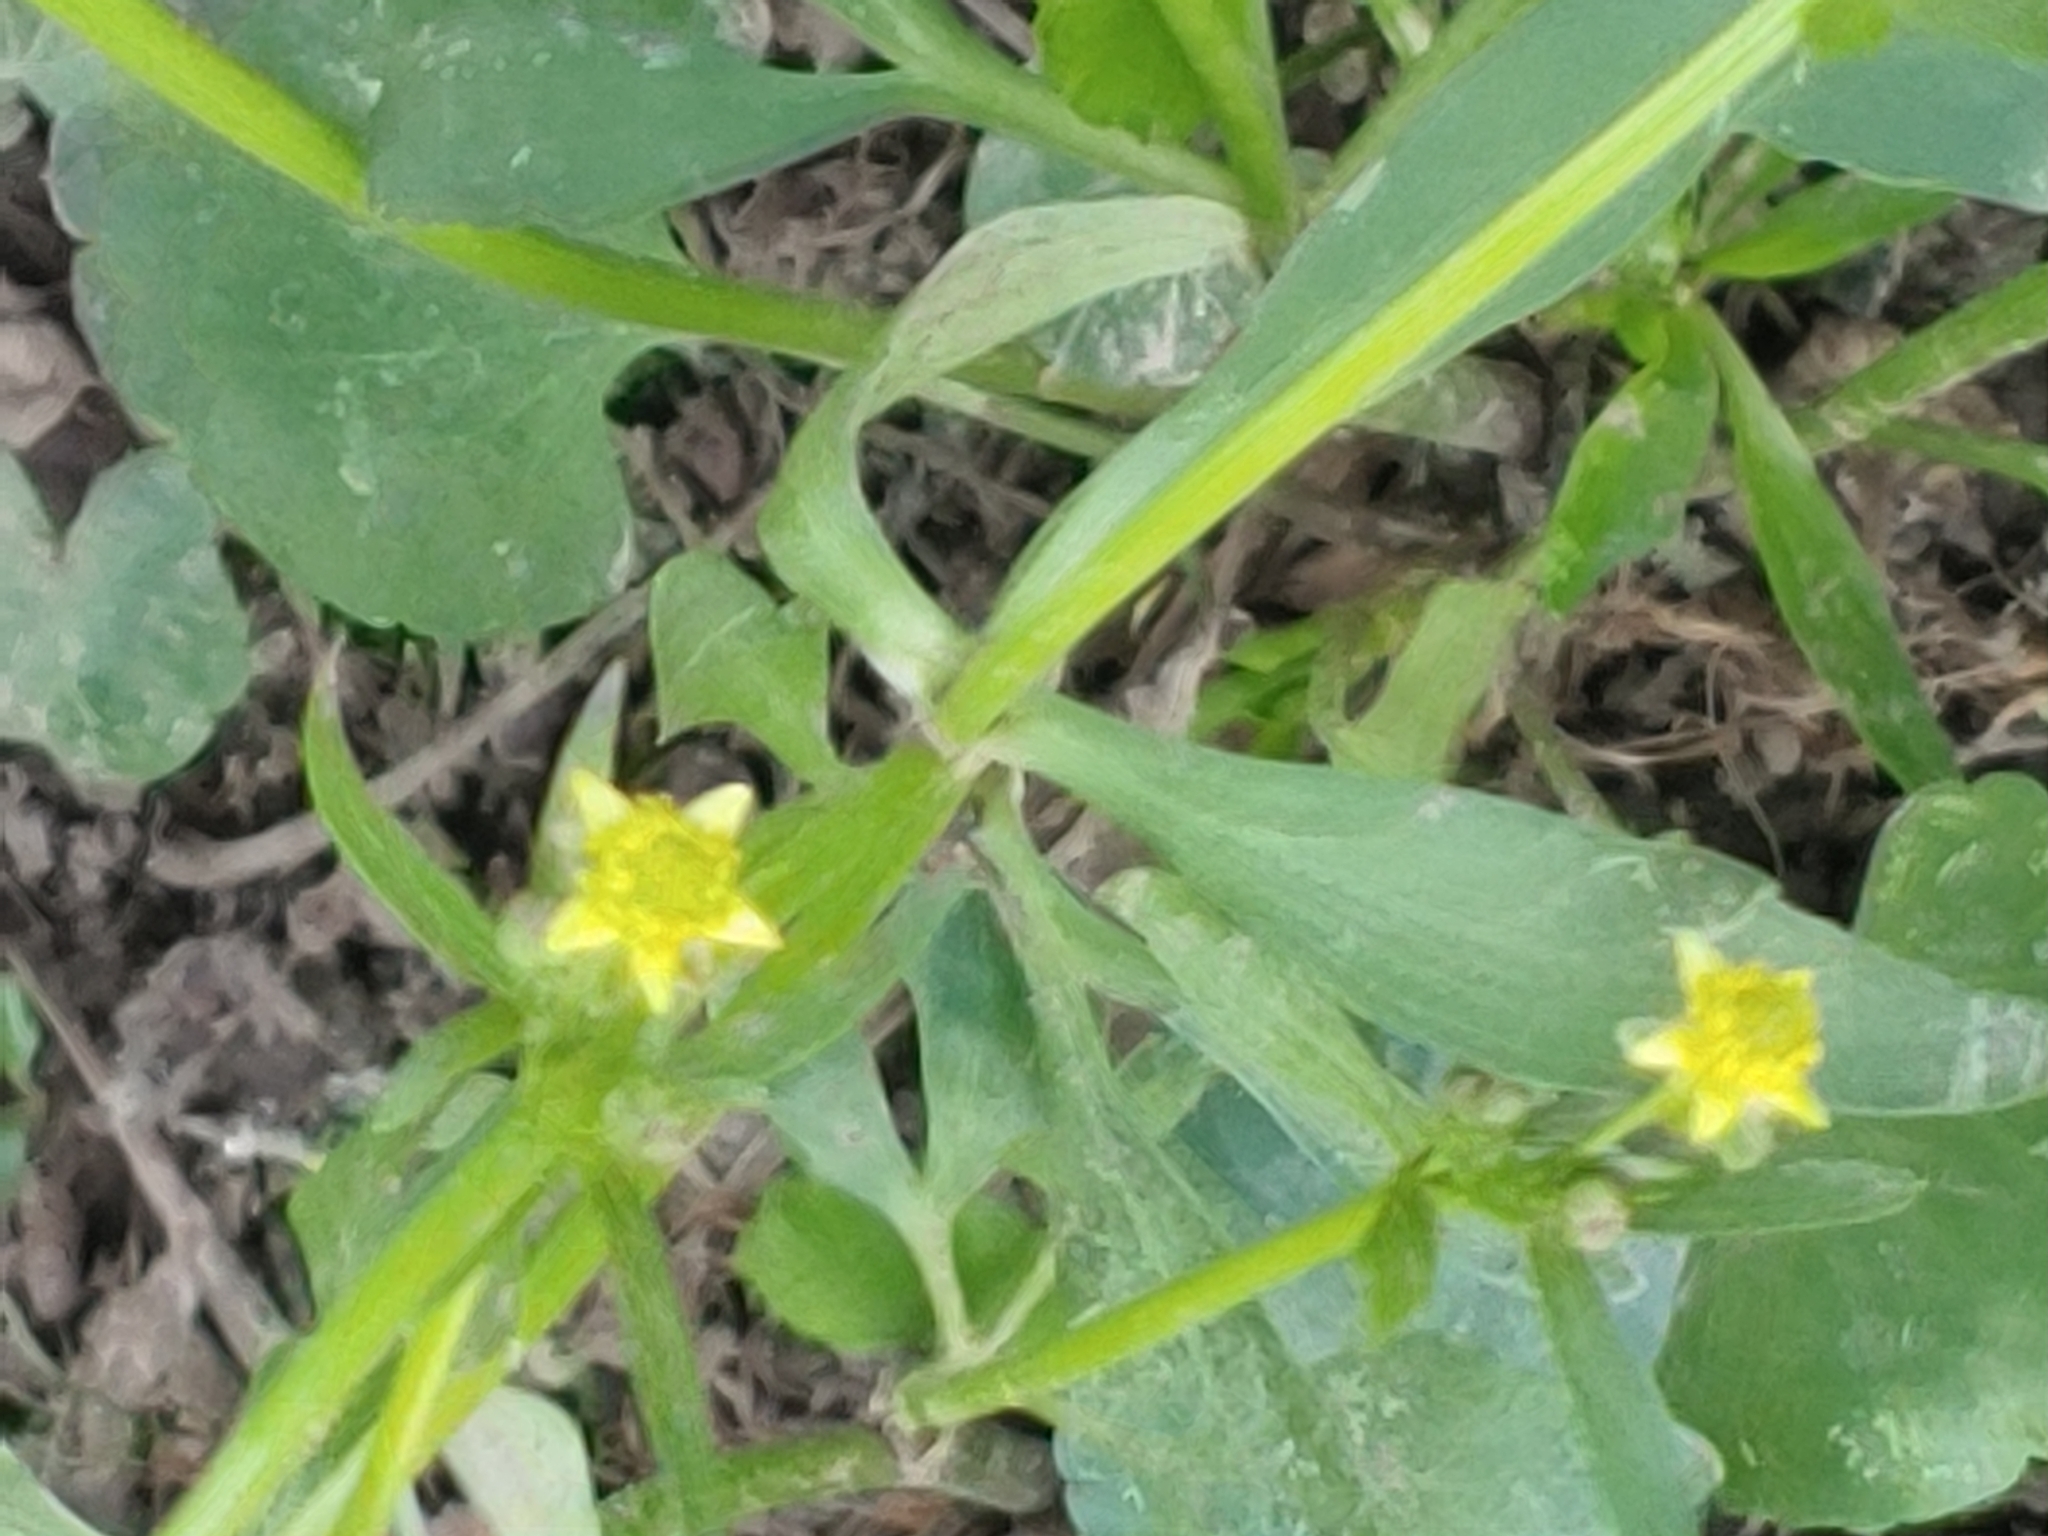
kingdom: Plantae
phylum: Tracheophyta
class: Magnoliopsida
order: Ranunculales
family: Ranunculaceae
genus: Ranunculus
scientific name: Ranunculus abortivus
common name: Early wood buttercup
